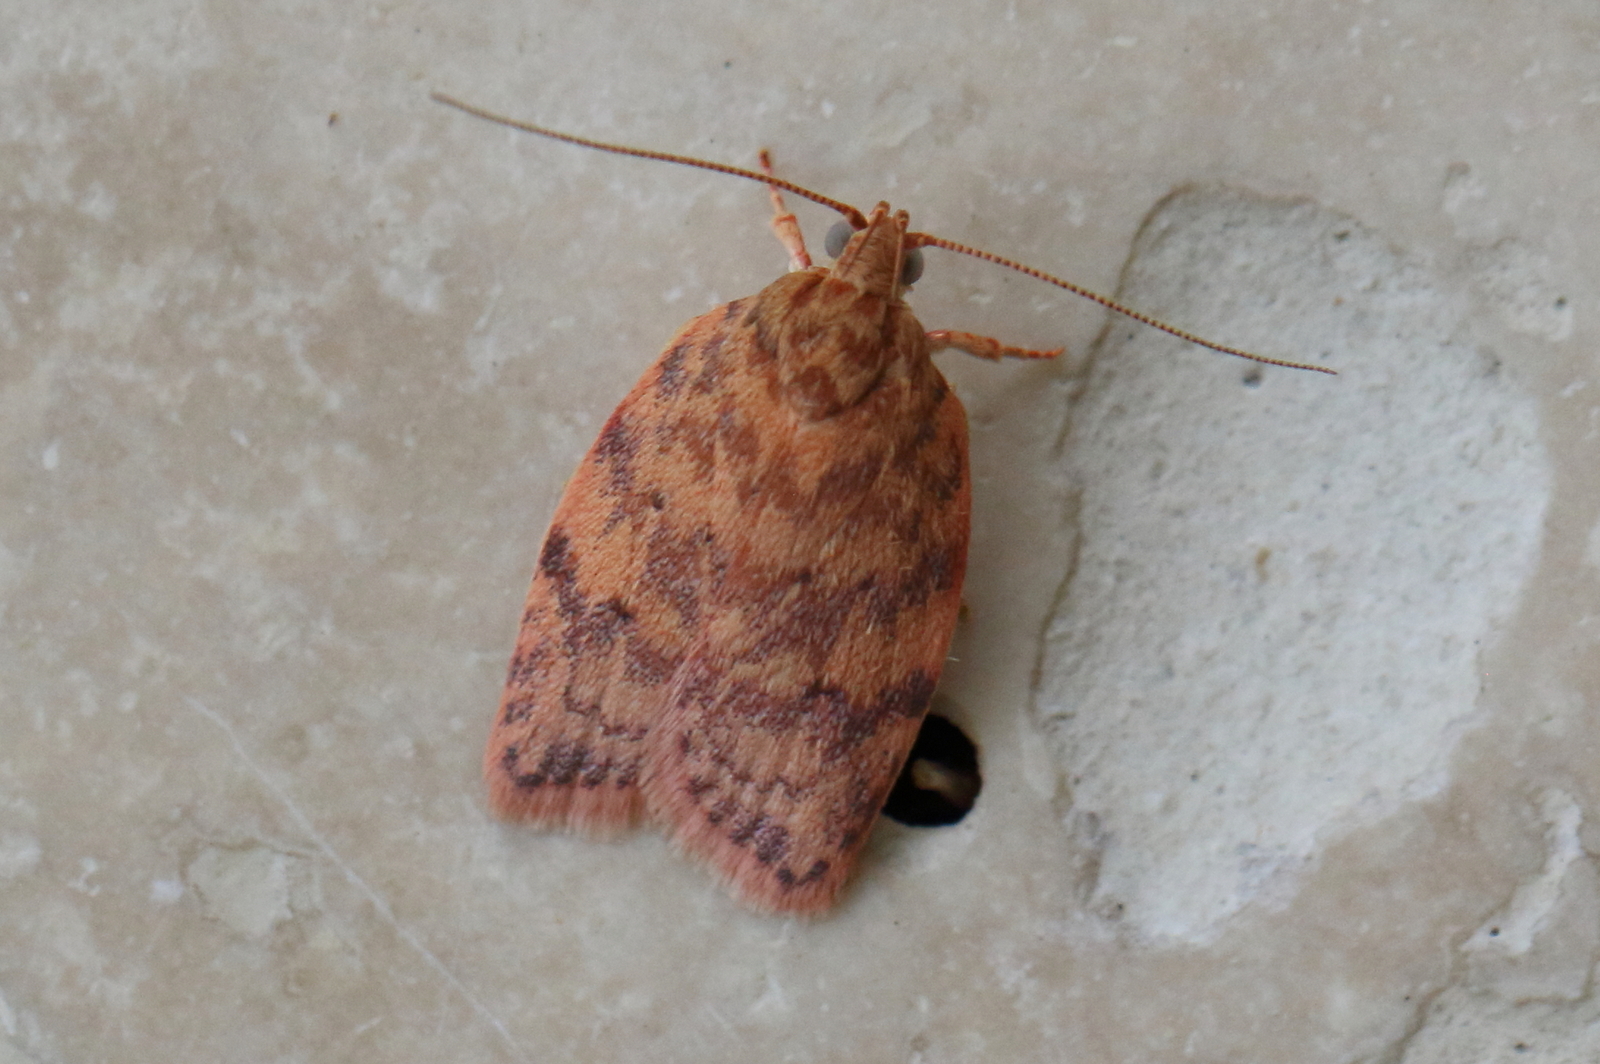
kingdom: Animalia
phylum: Arthropoda
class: Insecta
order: Lepidoptera
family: Oecophoridae
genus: Garrha
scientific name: Garrha costimacula
